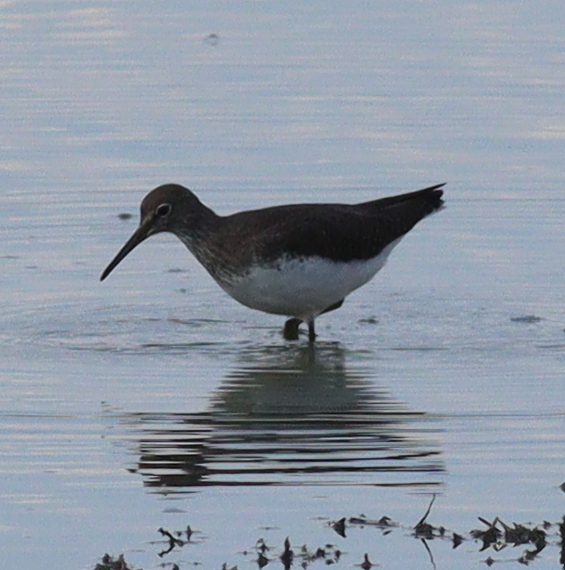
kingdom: Animalia
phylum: Chordata
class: Aves
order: Charadriiformes
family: Scolopacidae
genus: Tringa
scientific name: Tringa ochropus
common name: Green sandpiper
